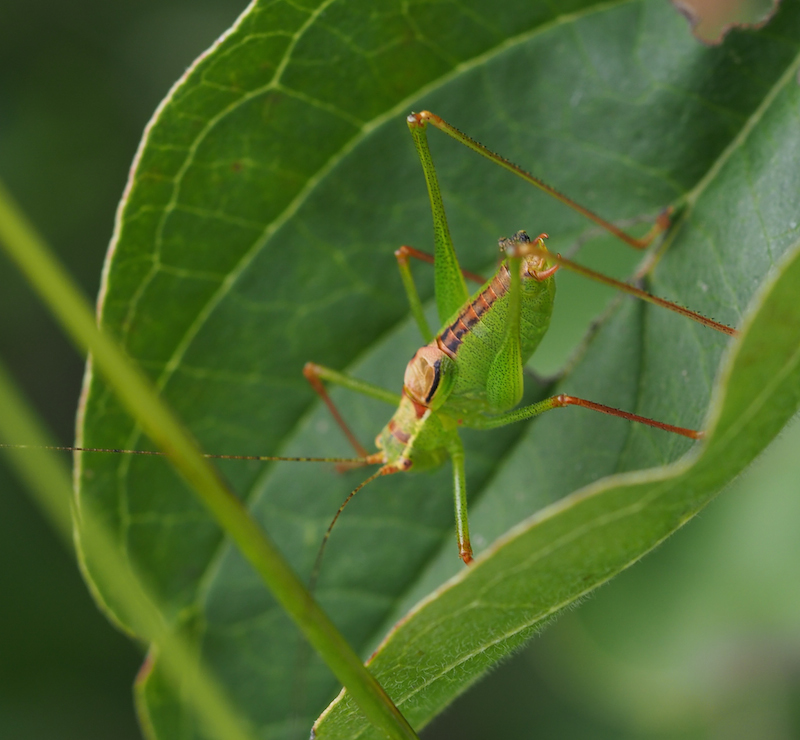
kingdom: Animalia
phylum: Arthropoda
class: Insecta
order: Orthoptera
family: Tettigoniidae
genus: Leptophyes
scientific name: Leptophyes punctatissima
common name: Speckled bush-cricket
